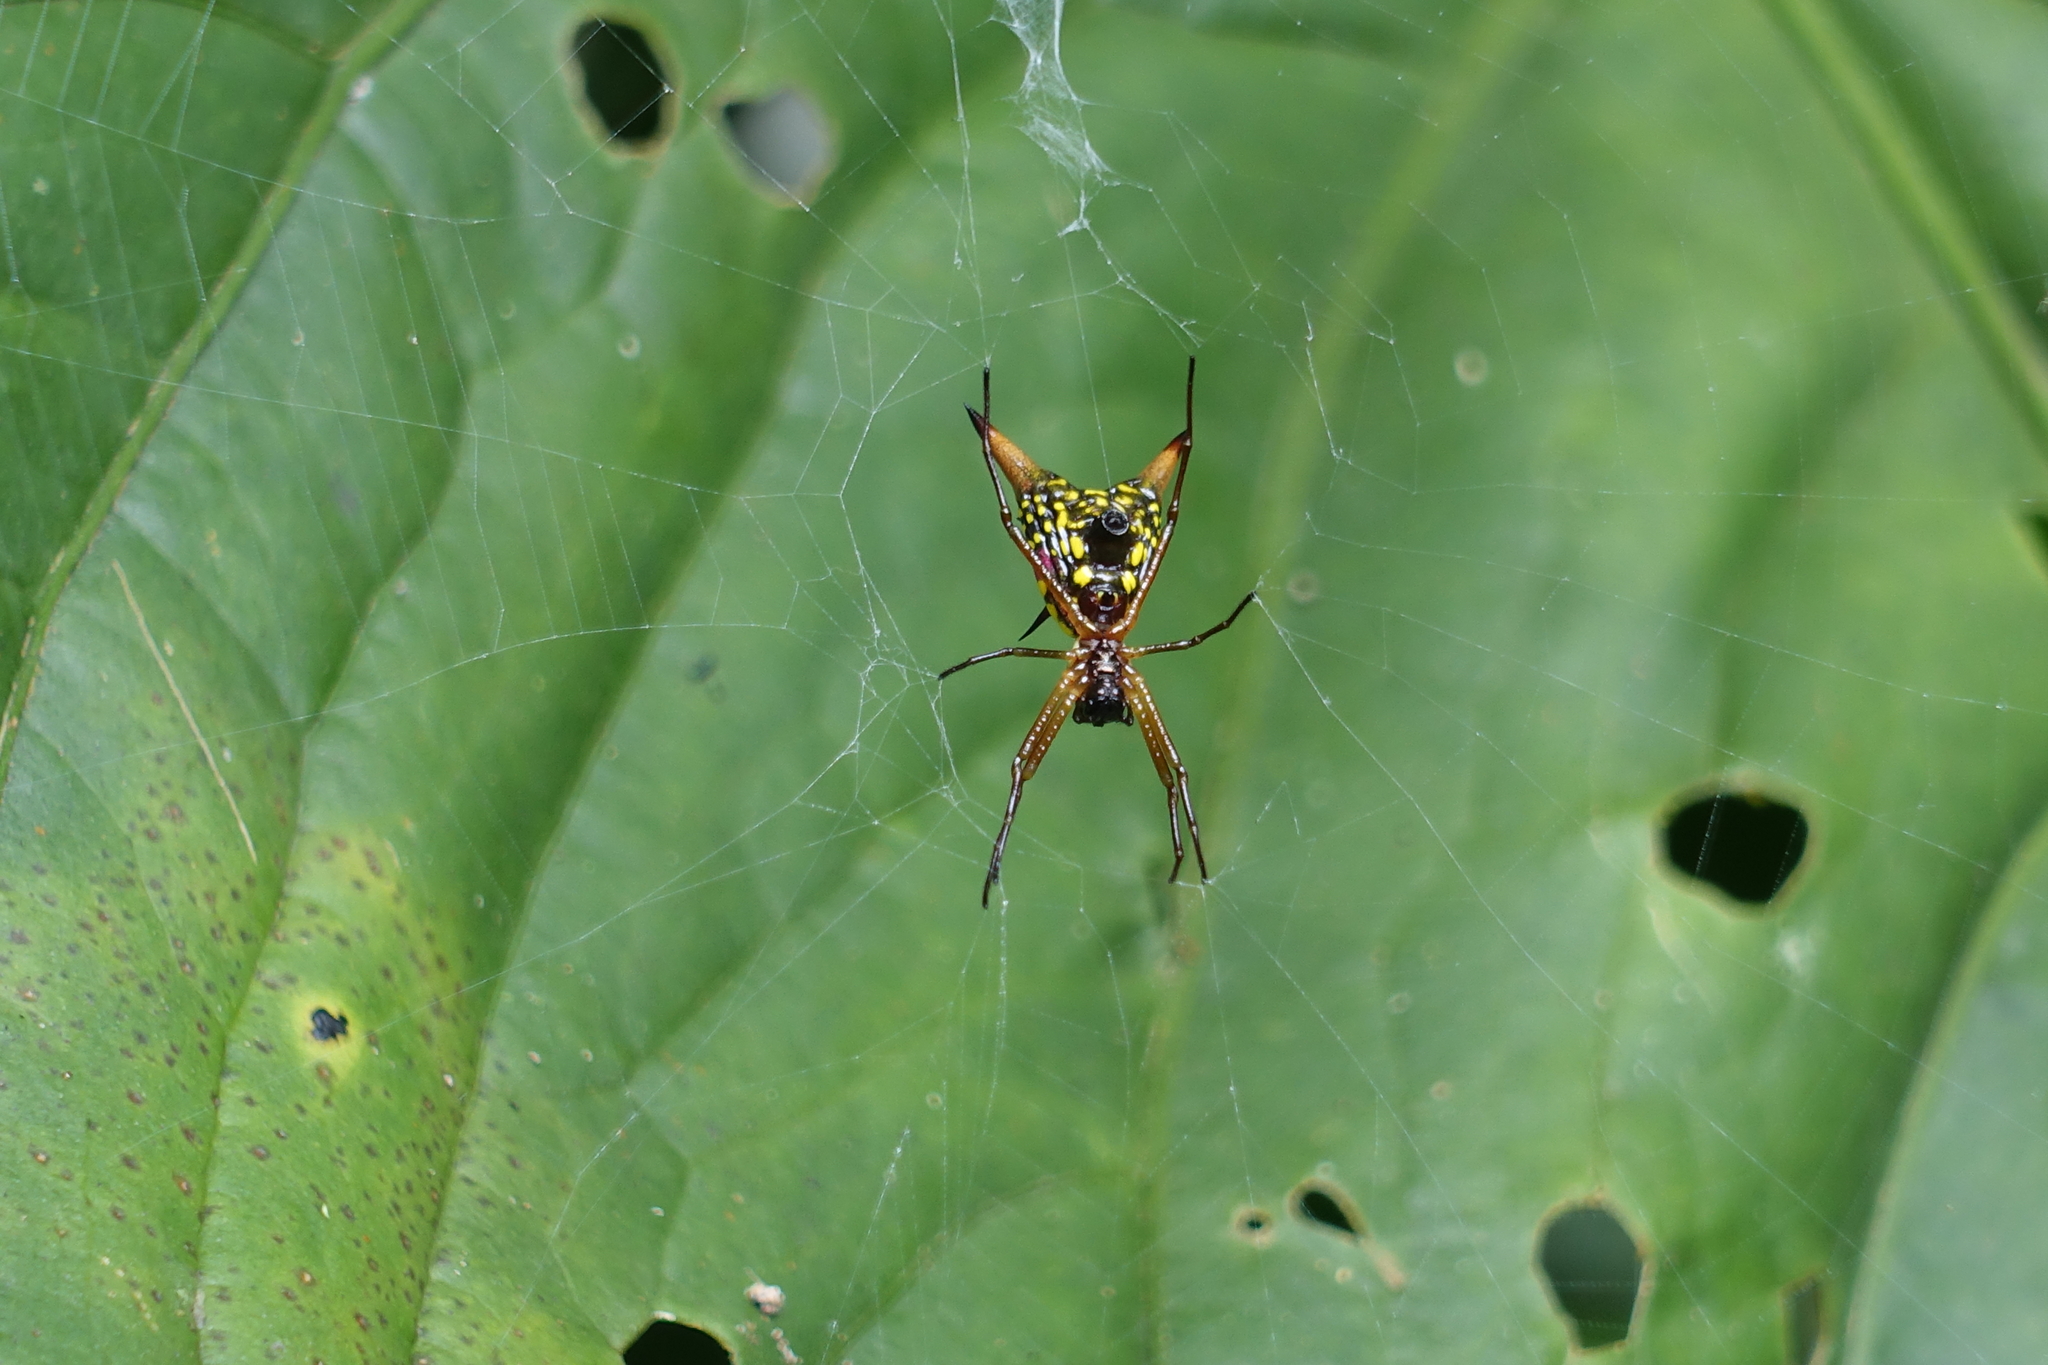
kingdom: Animalia
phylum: Arthropoda
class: Arachnida
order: Araneae
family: Araneidae
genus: Micrathena
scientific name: Micrathena sexspinosa
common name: Orb weavers
